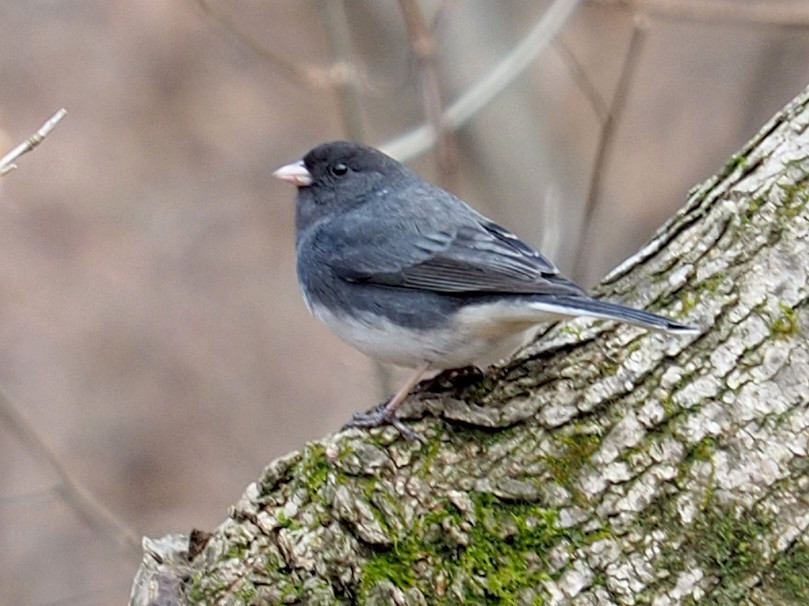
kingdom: Animalia
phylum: Chordata
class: Aves
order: Passeriformes
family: Passerellidae
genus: Junco
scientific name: Junco hyemalis
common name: Dark-eyed junco
